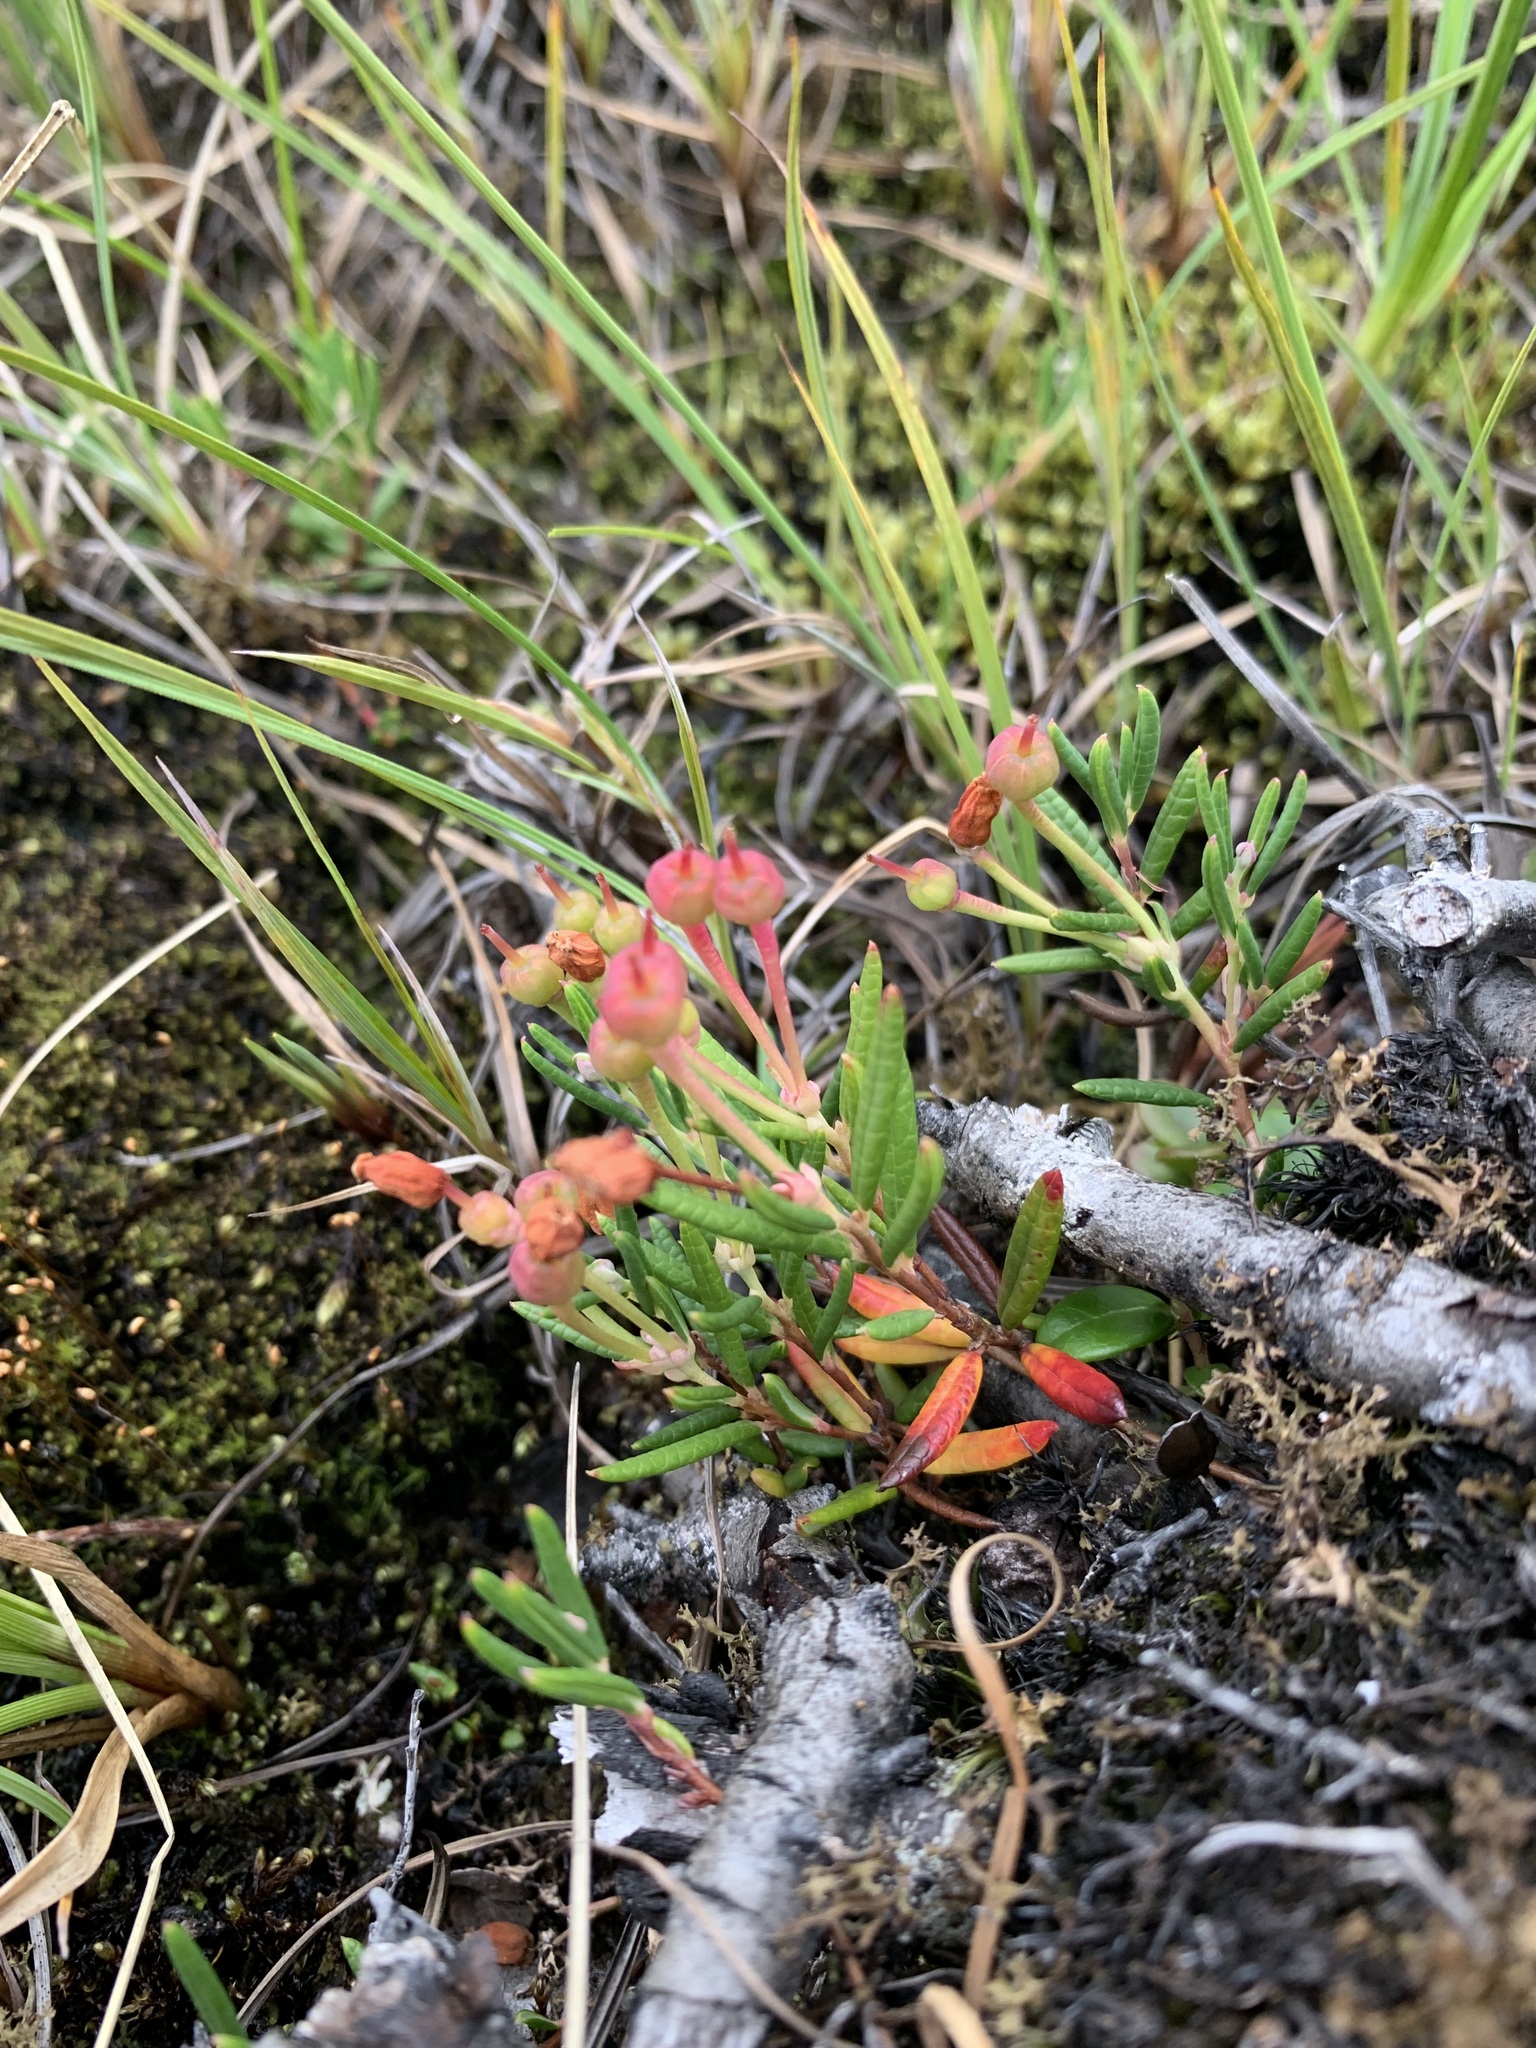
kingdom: Plantae
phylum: Tracheophyta
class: Magnoliopsida
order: Ericales
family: Ericaceae
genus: Andromeda
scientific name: Andromeda polifolia
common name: Bog-rosemary
